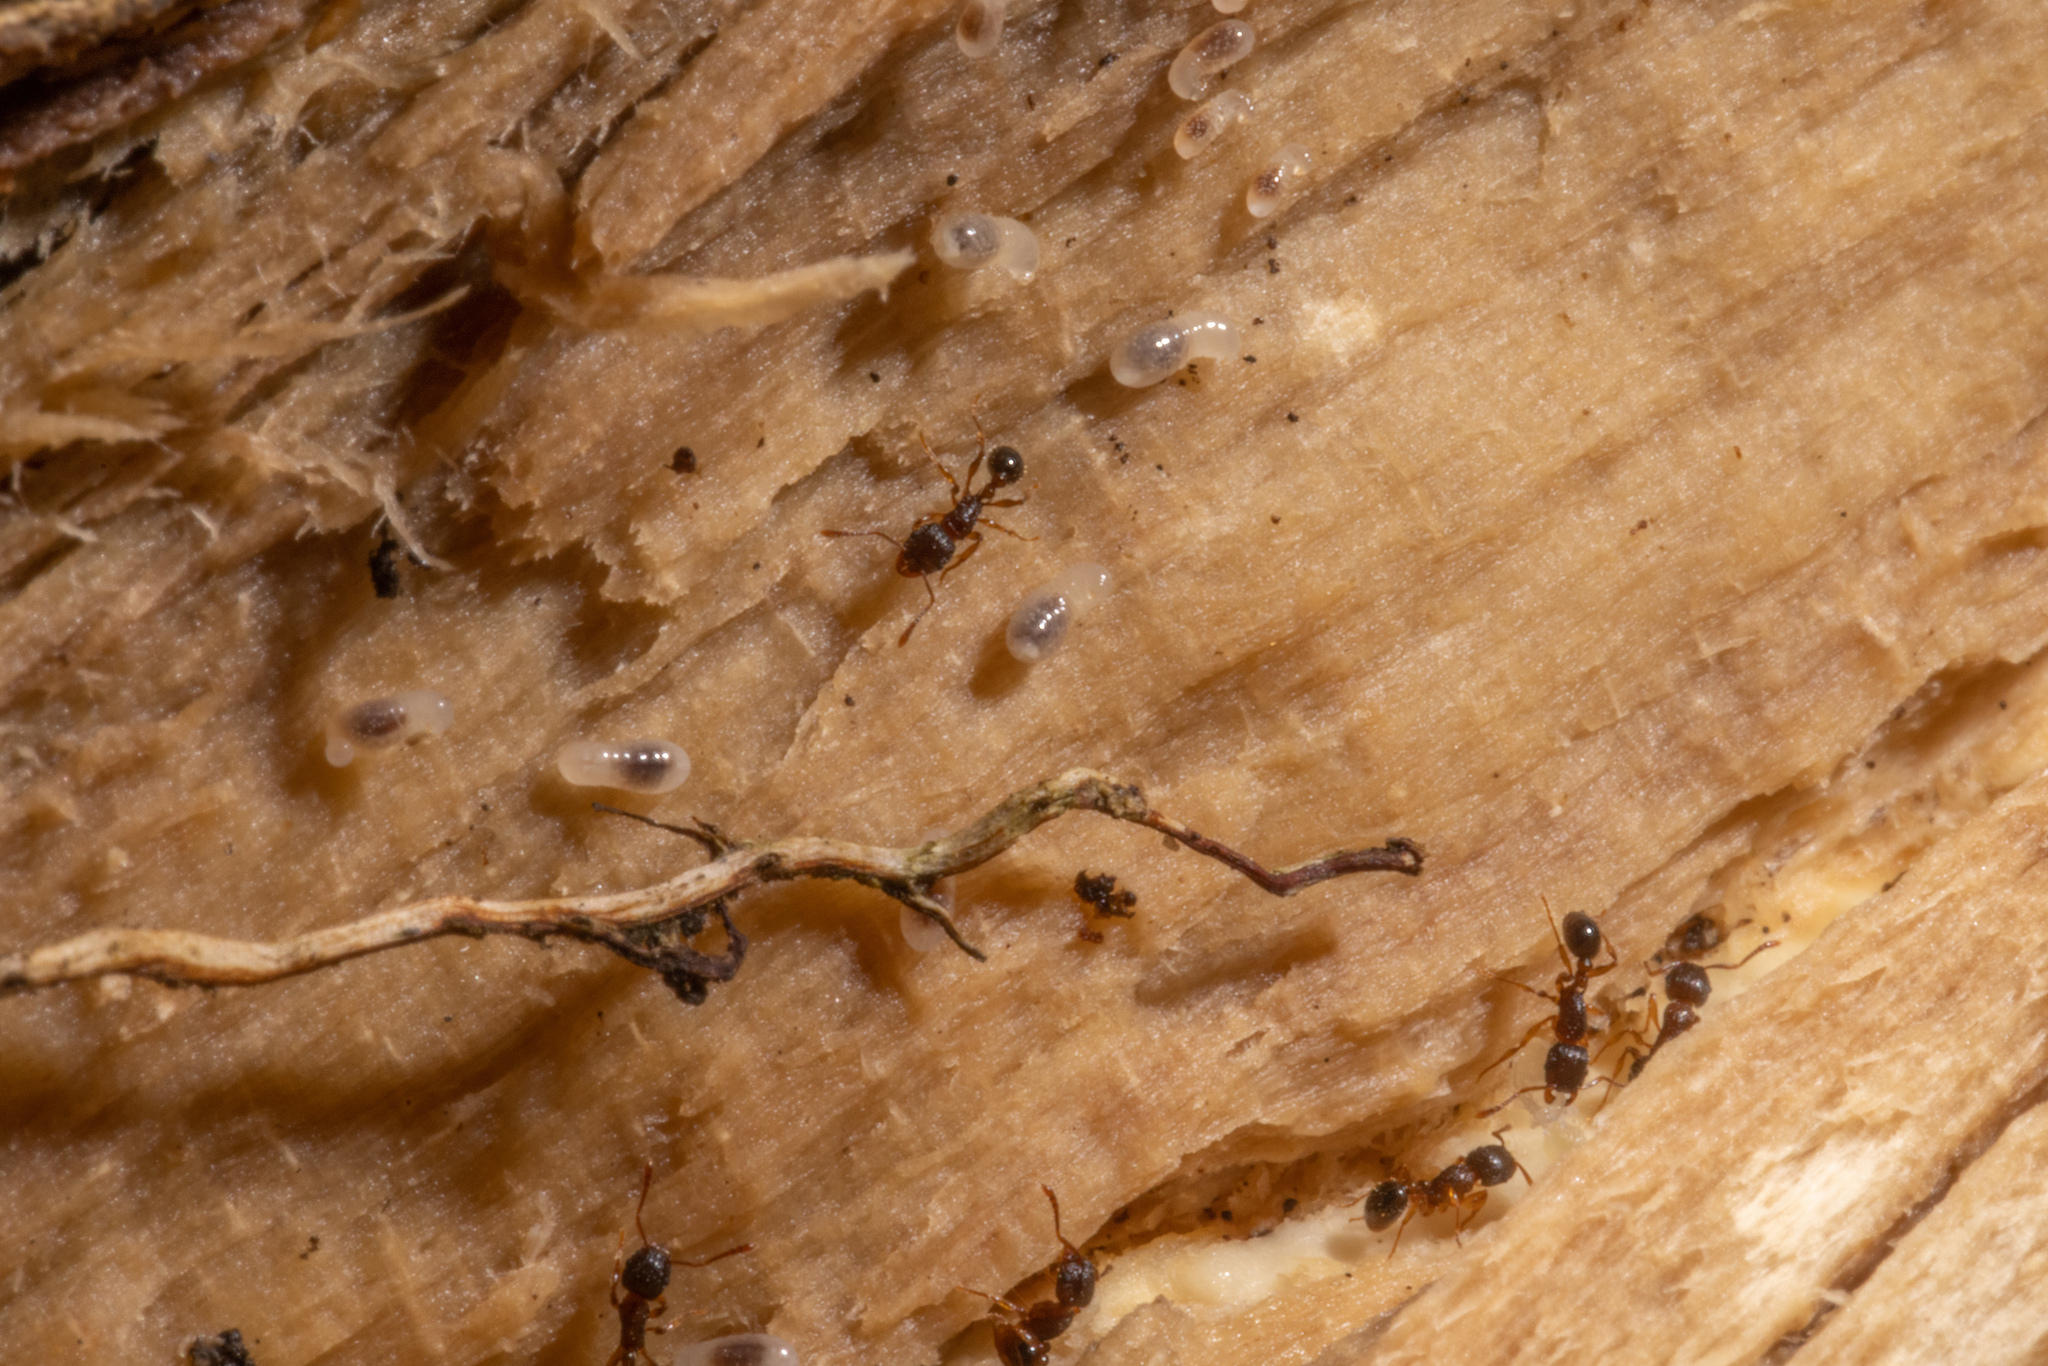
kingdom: Animalia
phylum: Arthropoda
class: Insecta
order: Hymenoptera
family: Formicidae
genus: Tetramorium
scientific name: Tetramorium grassii
